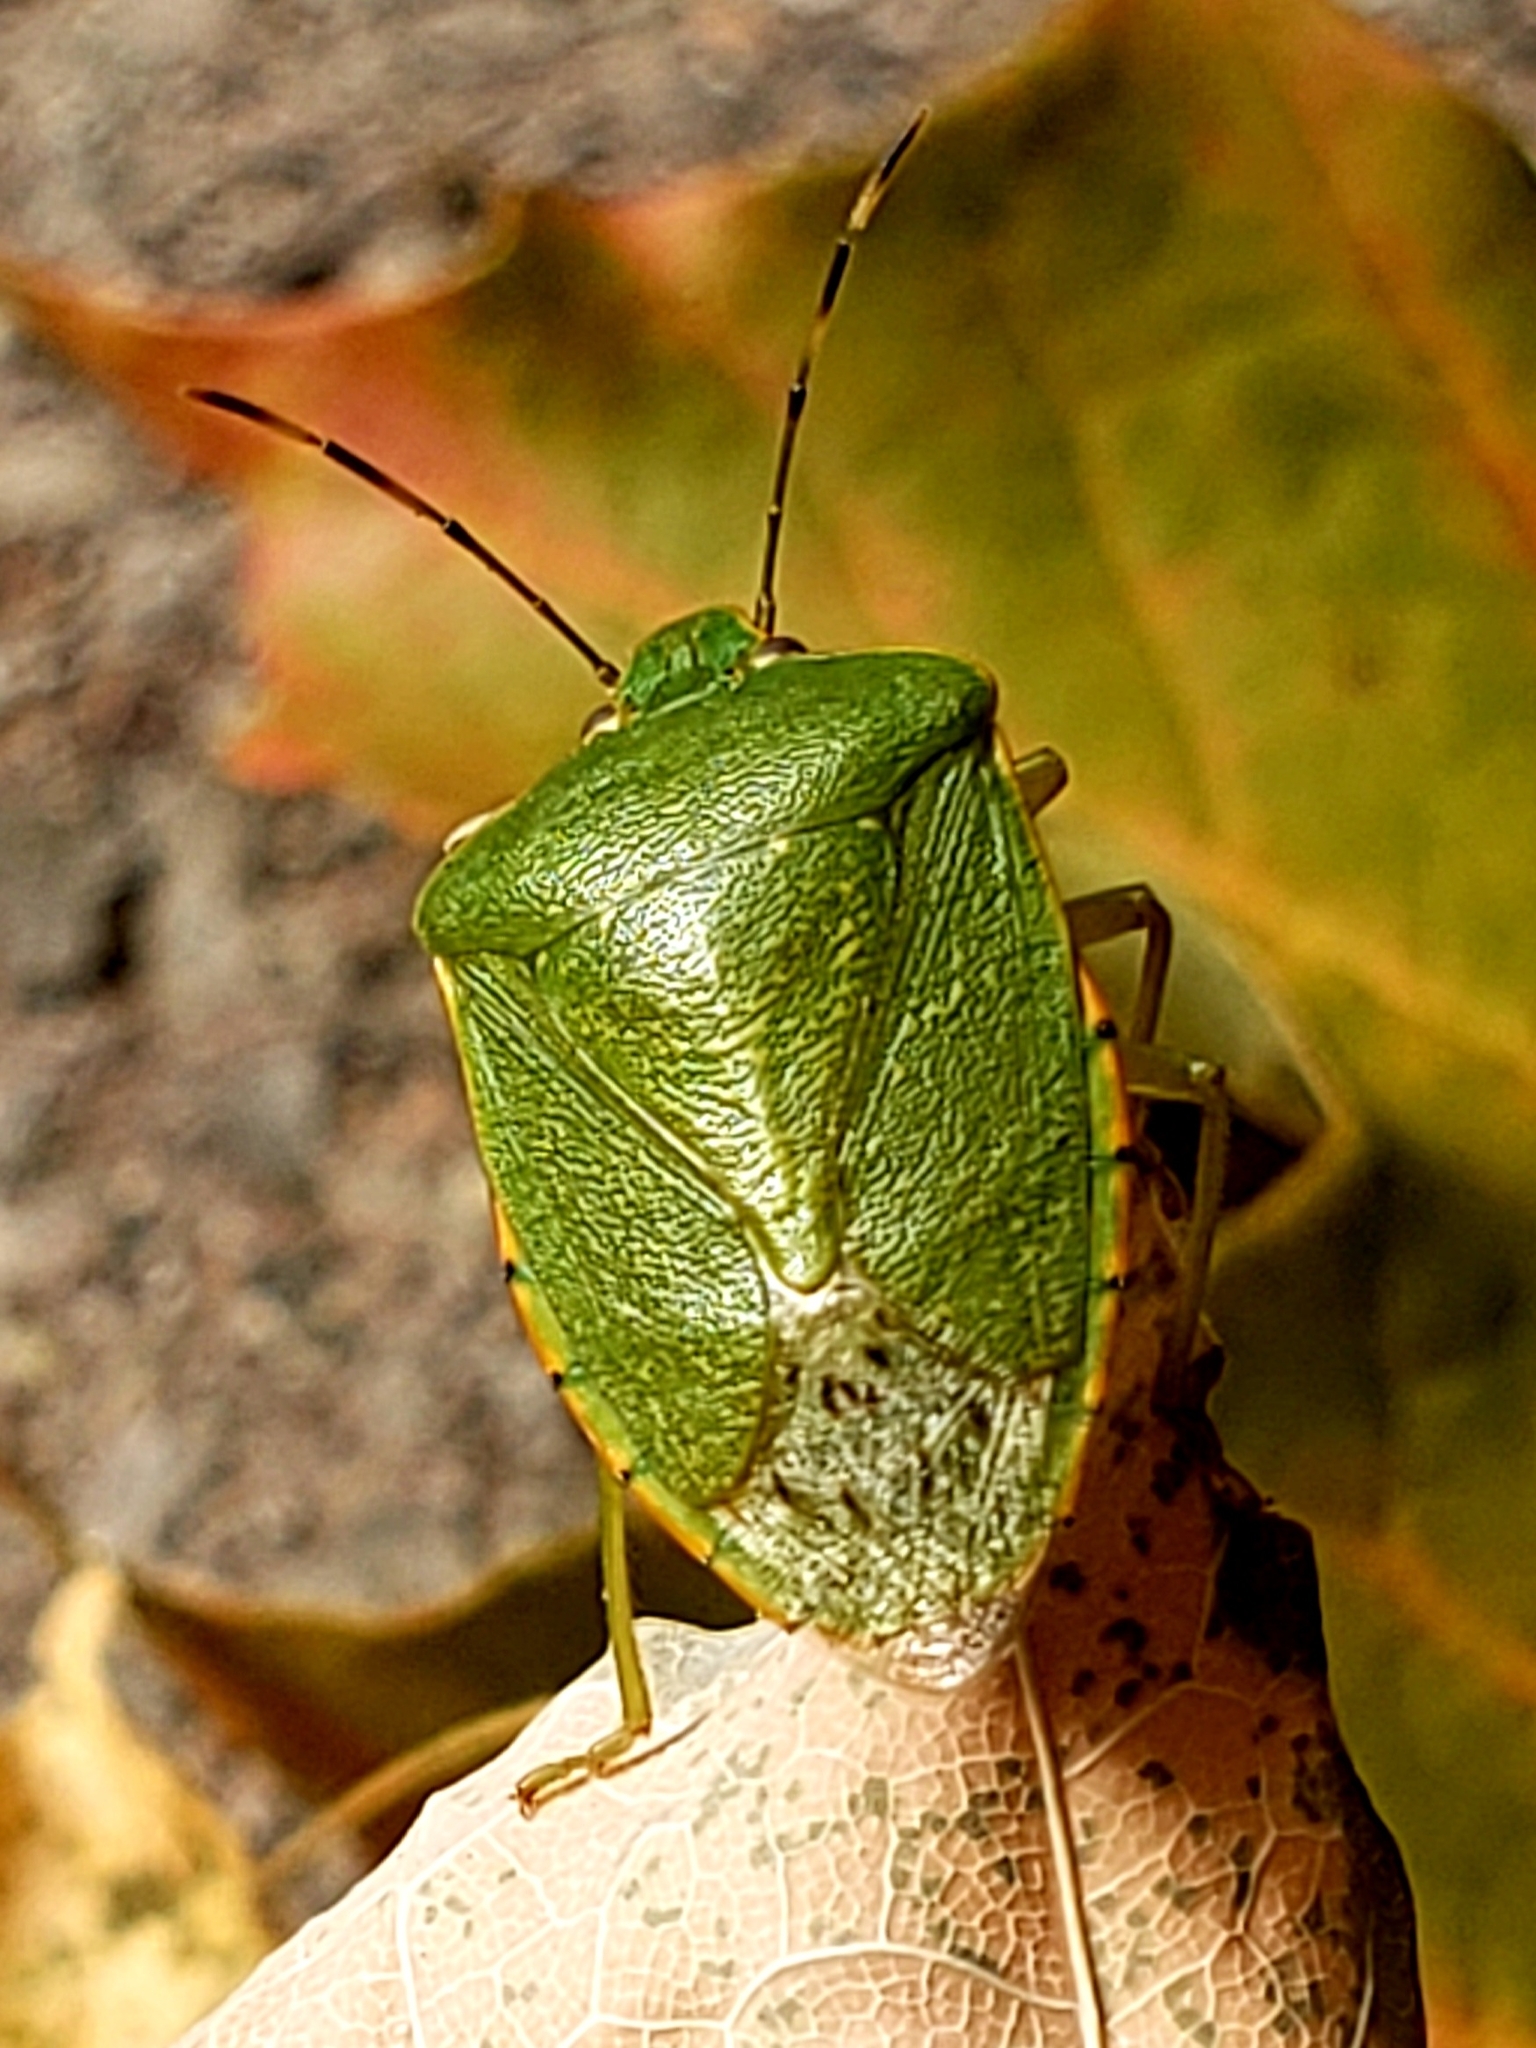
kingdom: Animalia
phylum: Arthropoda
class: Insecta
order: Hemiptera
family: Pentatomidae
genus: Chinavia
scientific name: Chinavia hilaris
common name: Green stink bug
